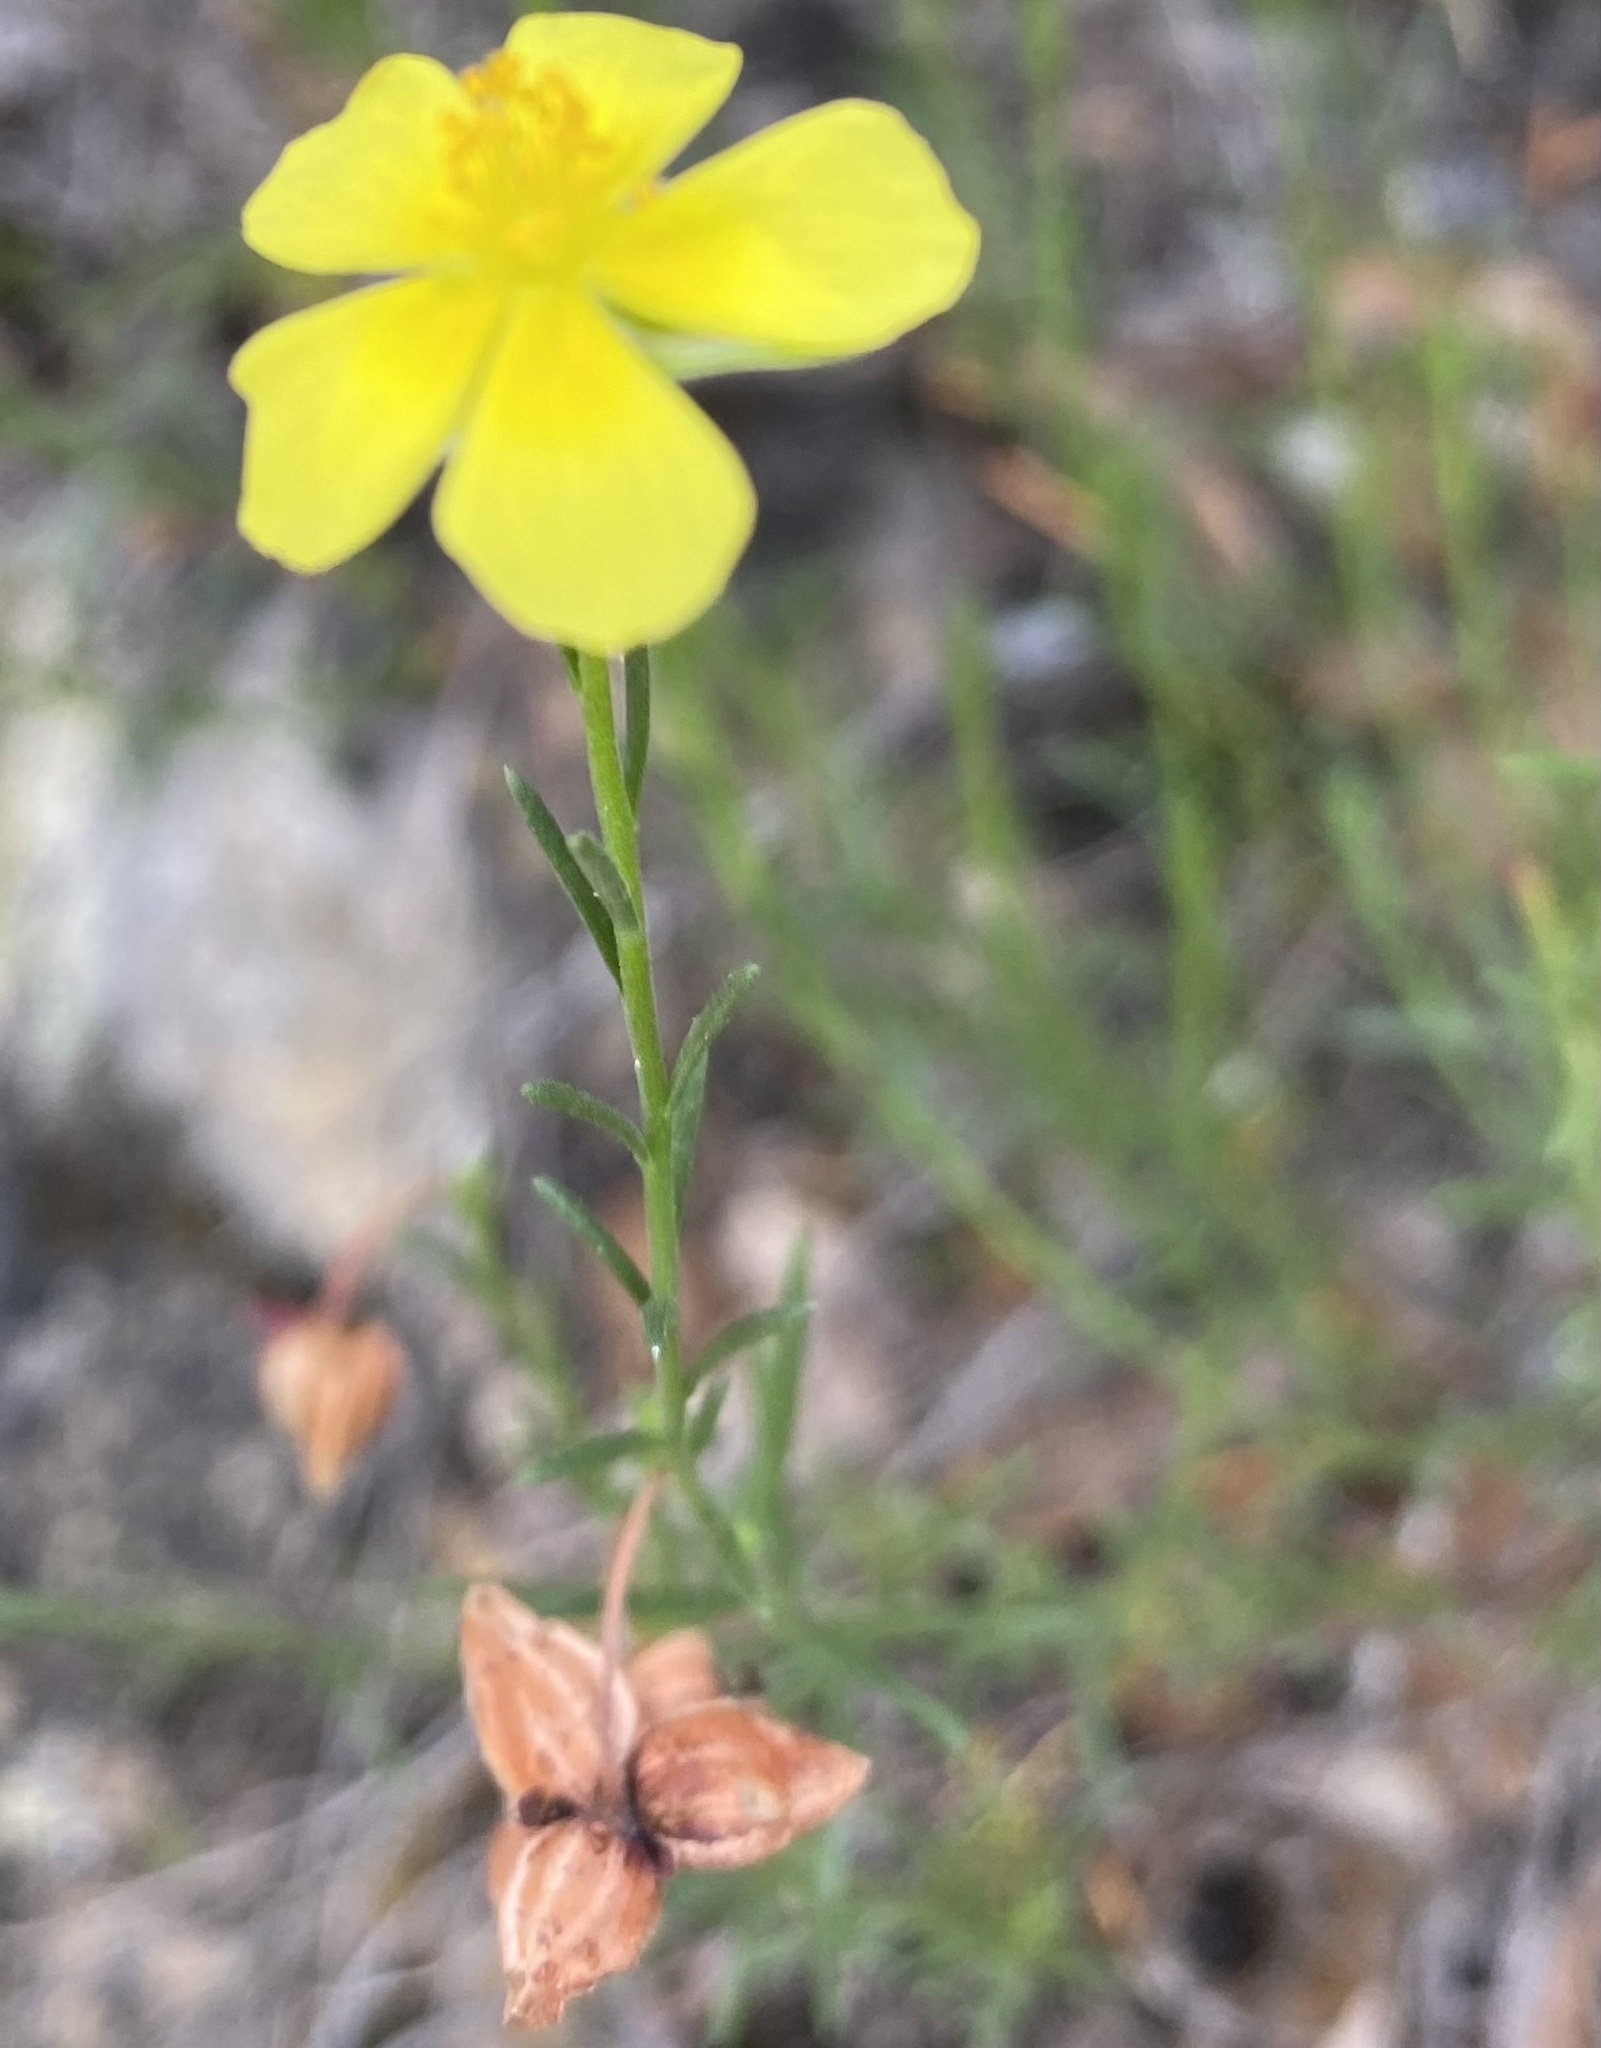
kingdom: Plantae
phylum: Tracheophyta
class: Magnoliopsida
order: Malvales
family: Cistaceae
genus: Fumana
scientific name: Fumana ericoides
